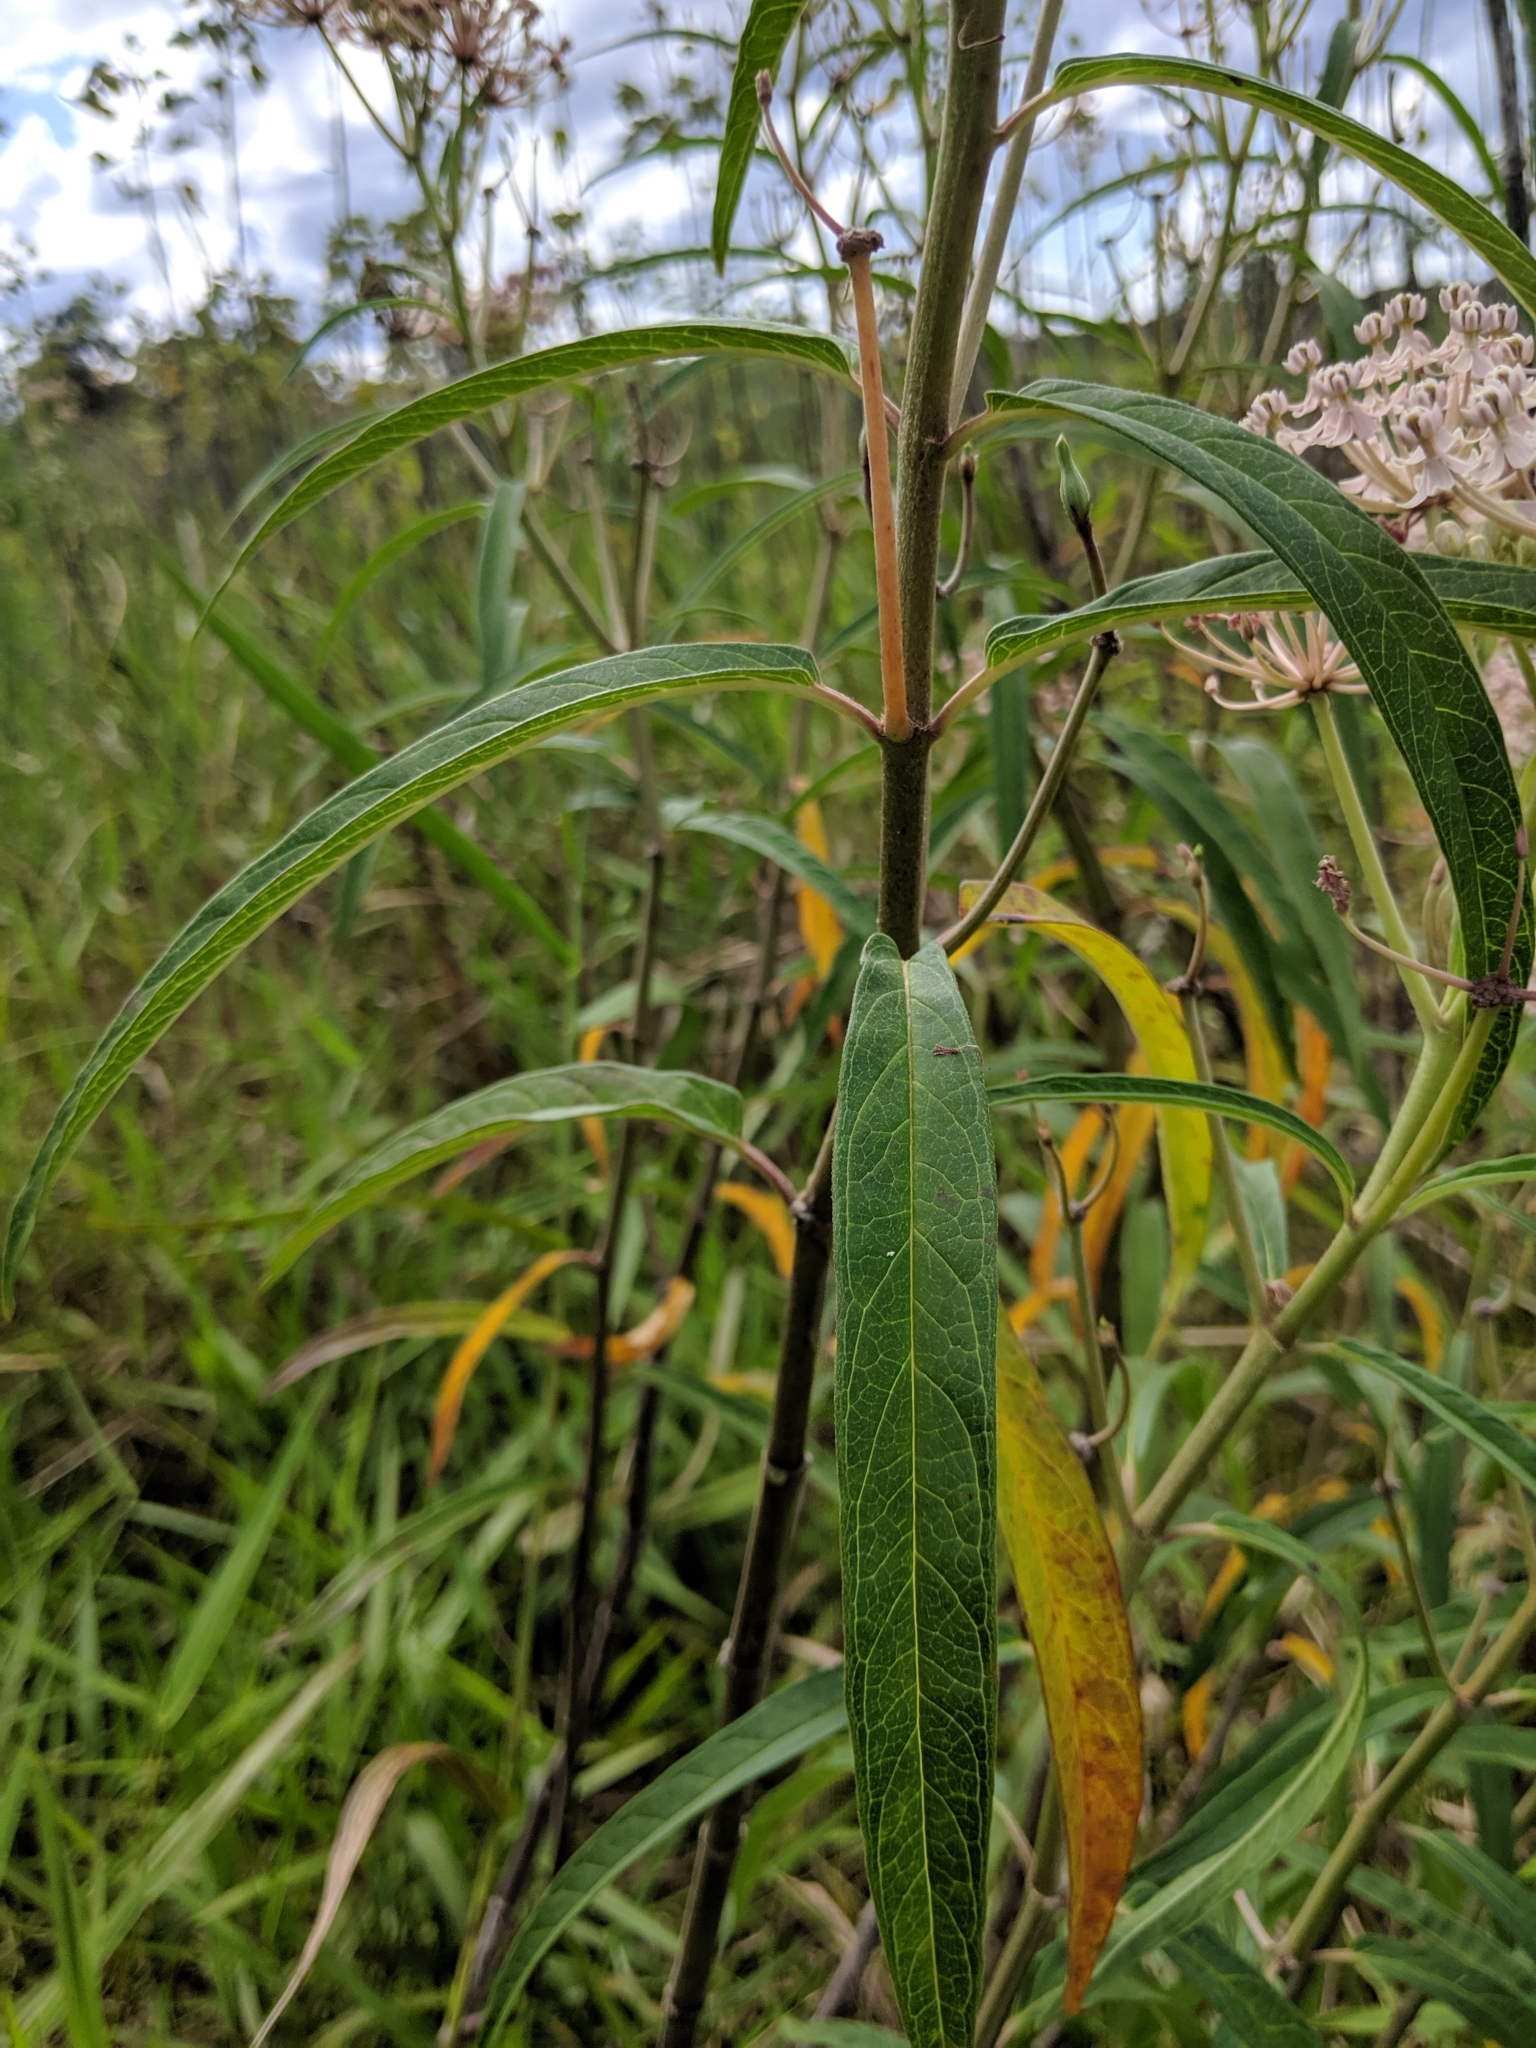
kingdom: Plantae
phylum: Tracheophyta
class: Magnoliopsida
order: Gentianales
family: Apocynaceae
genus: Asclepias
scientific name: Asclepias incarnata
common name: Swamp milkweed
